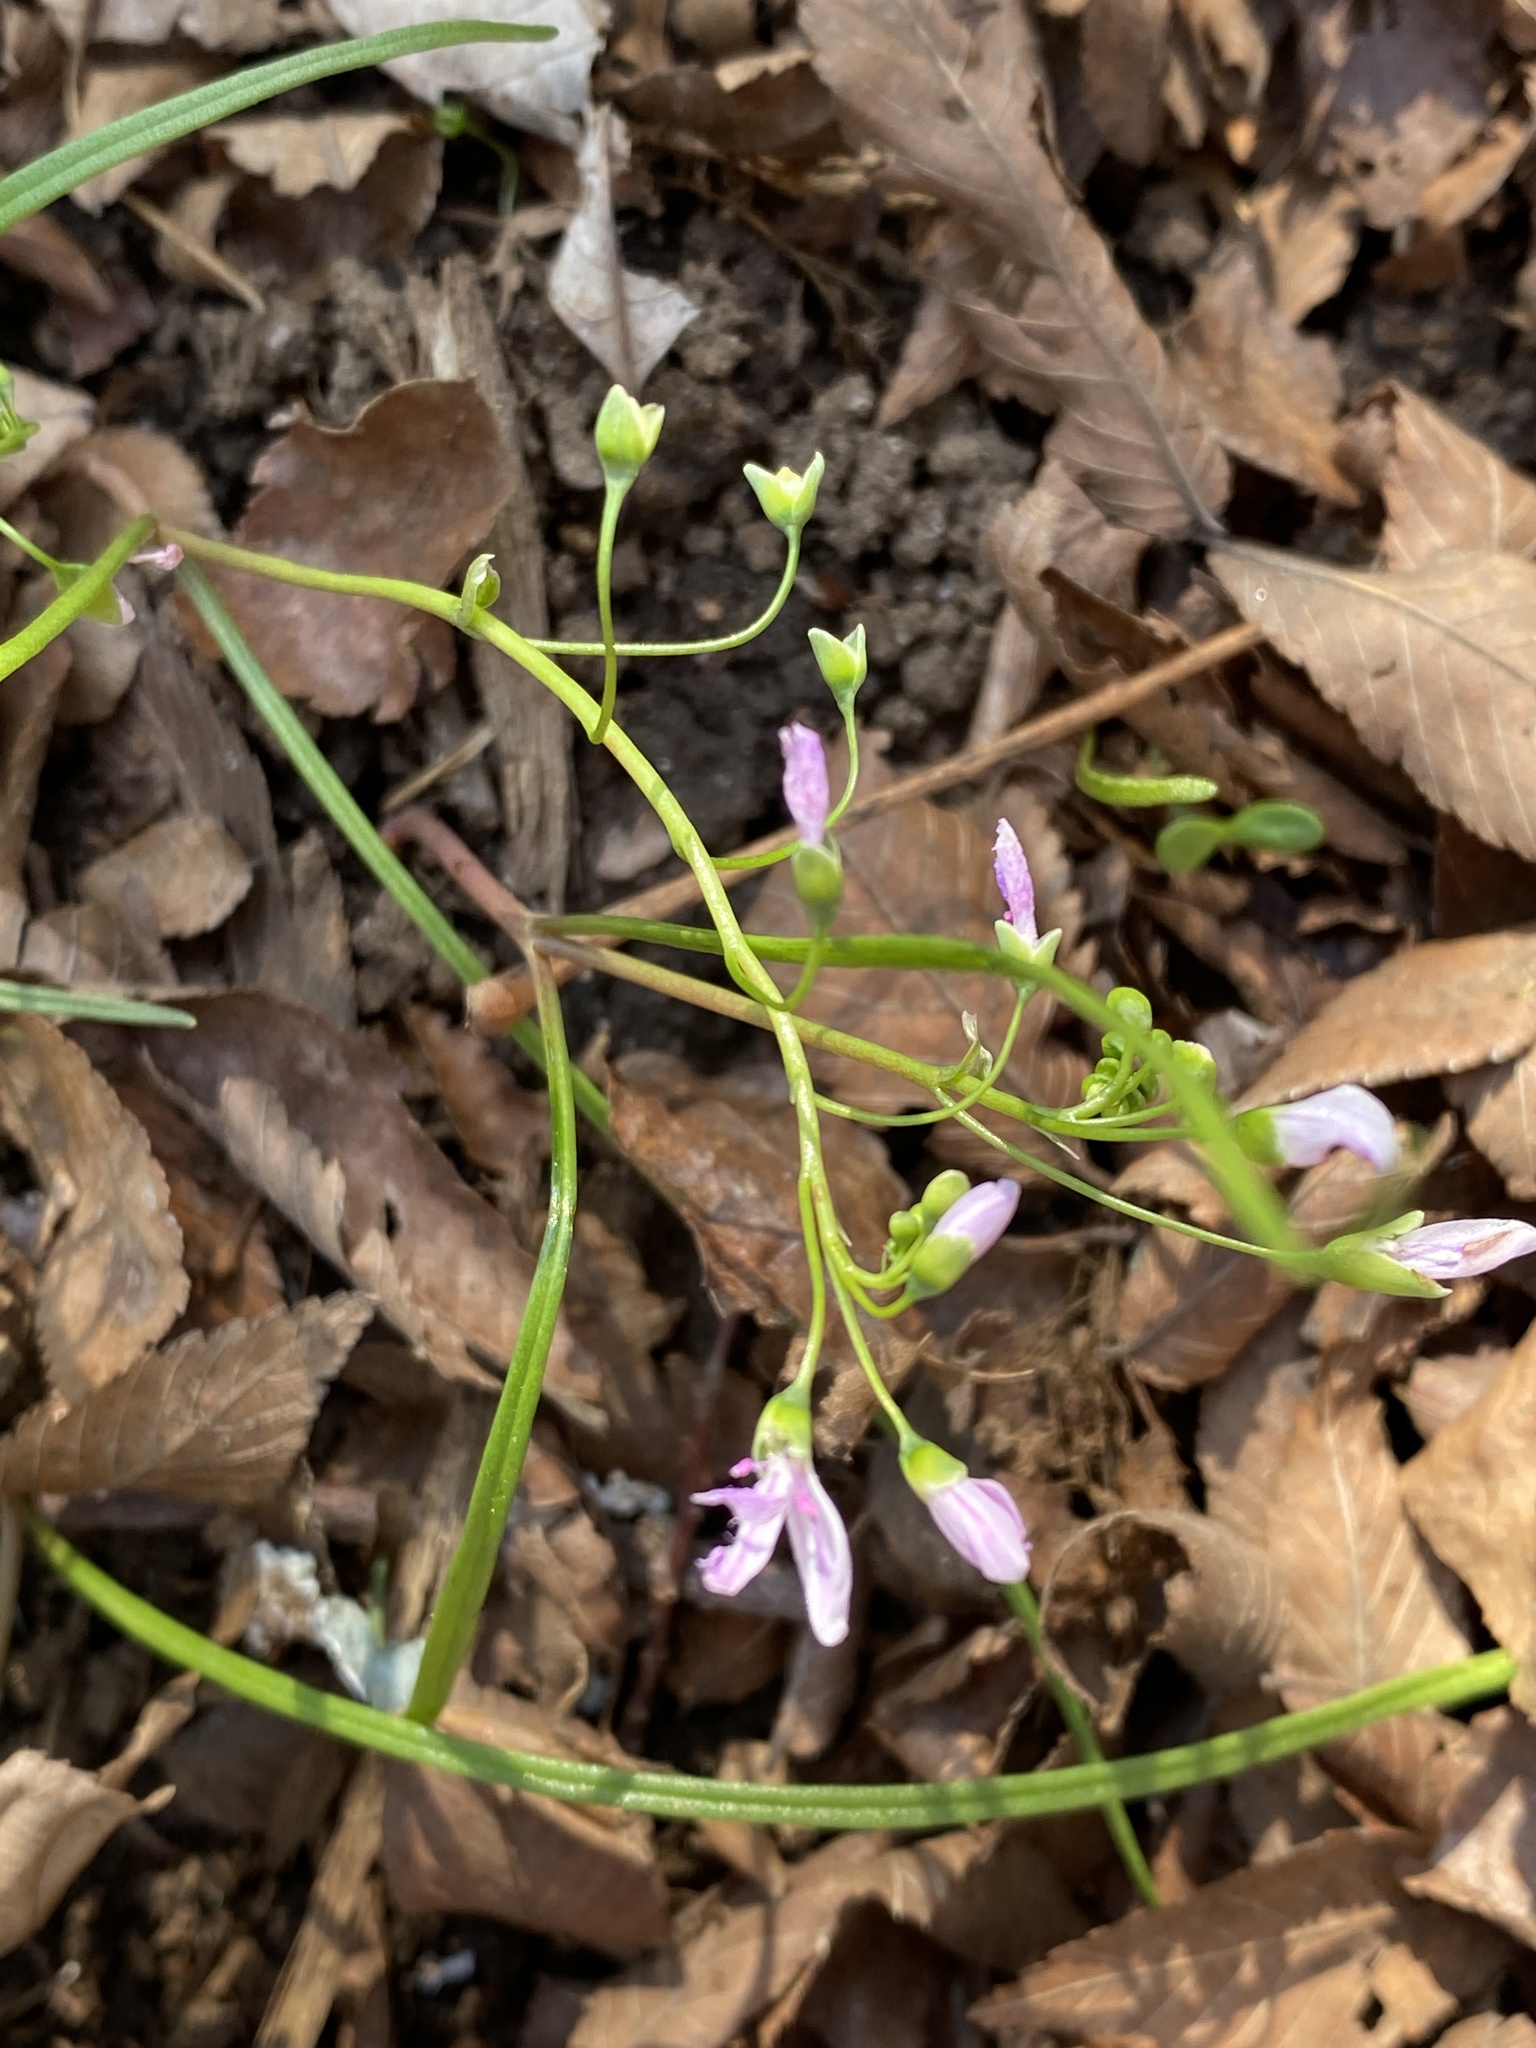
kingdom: Plantae
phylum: Tracheophyta
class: Magnoliopsida
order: Caryophyllales
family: Montiaceae
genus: Claytonia
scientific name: Claytonia virginica
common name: Virginia springbeauty
